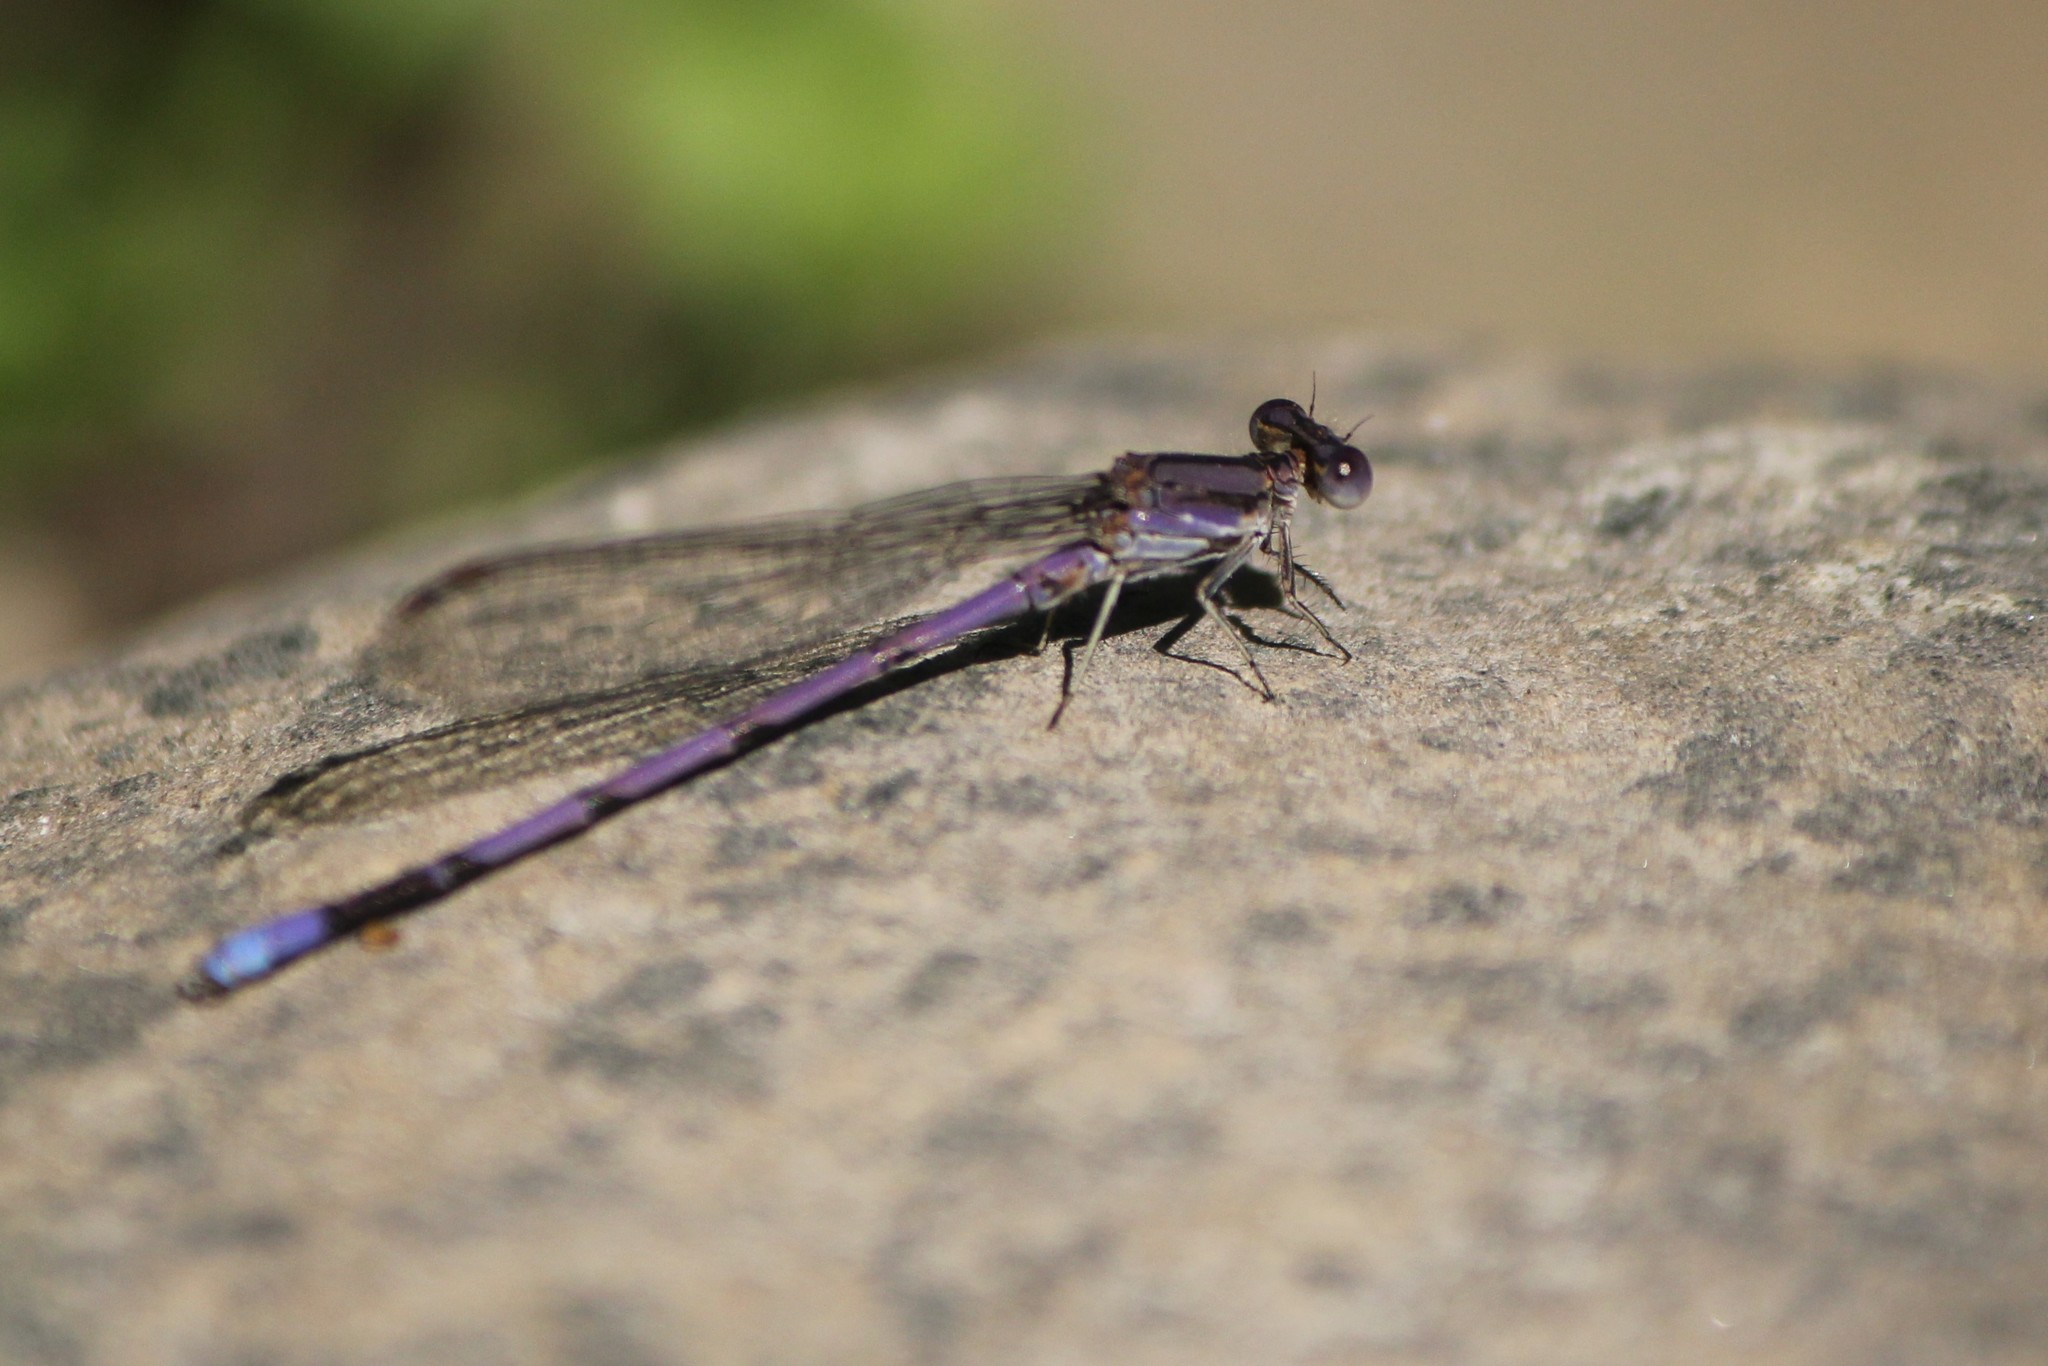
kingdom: Animalia
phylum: Arthropoda
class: Insecta
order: Odonata
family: Coenagrionidae
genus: Argia
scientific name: Argia fumipennis
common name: Variable dancer
